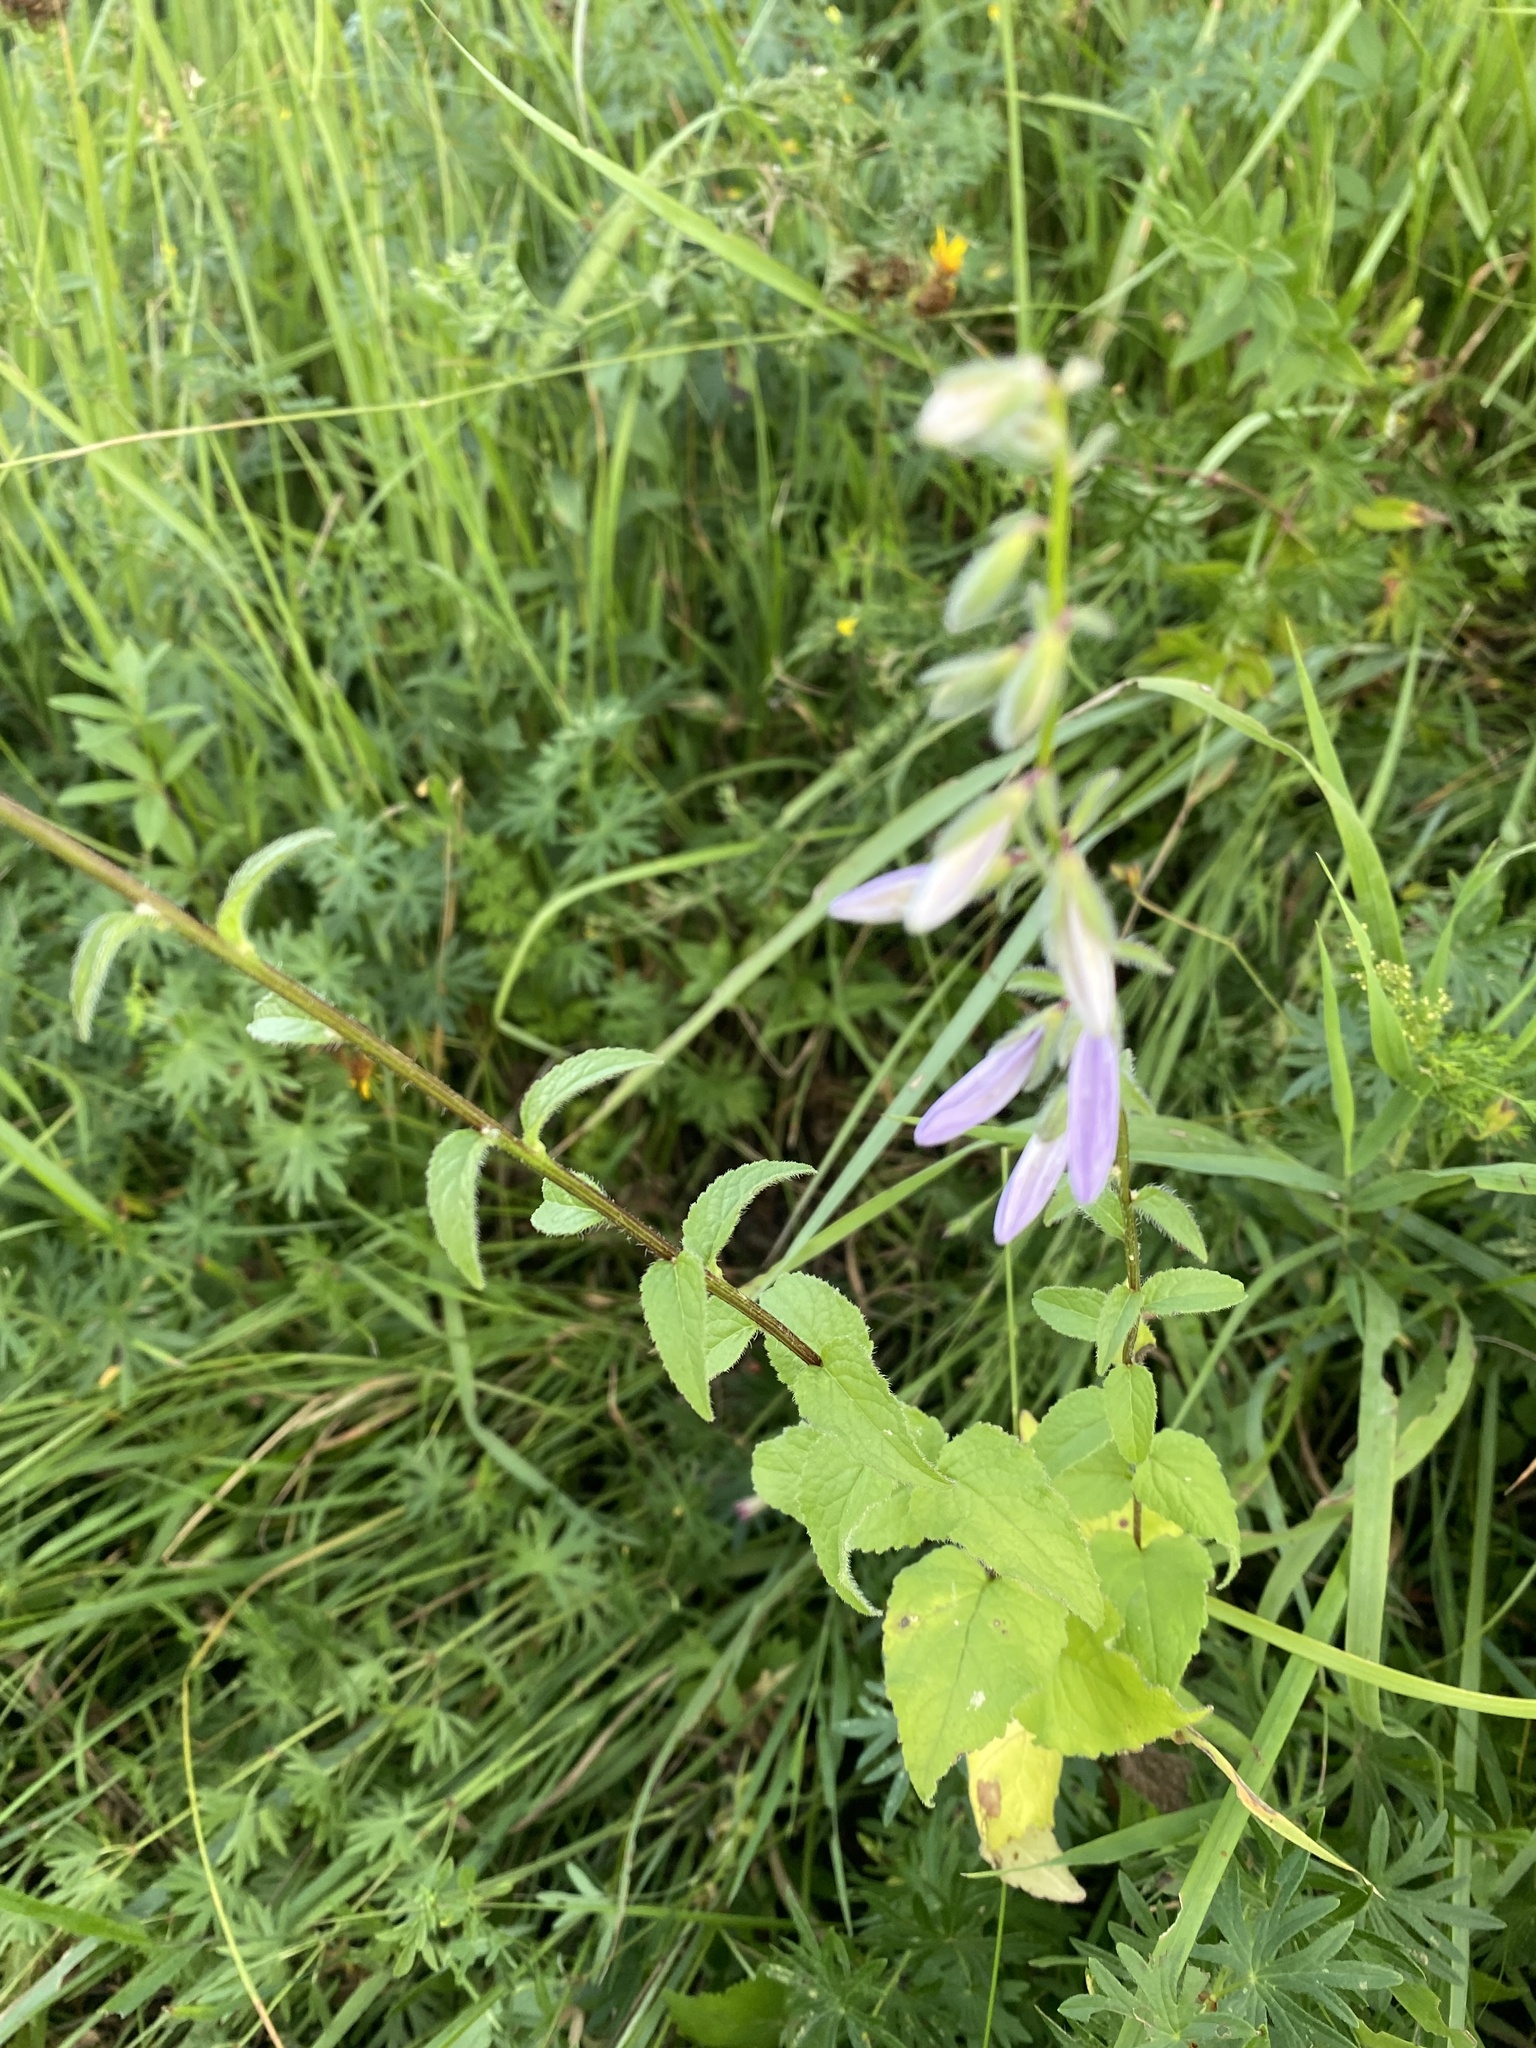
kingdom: Plantae
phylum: Tracheophyta
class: Magnoliopsida
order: Asterales
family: Campanulaceae
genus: Campanula
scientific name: Campanula rapunculoides
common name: Creeping bellflower
